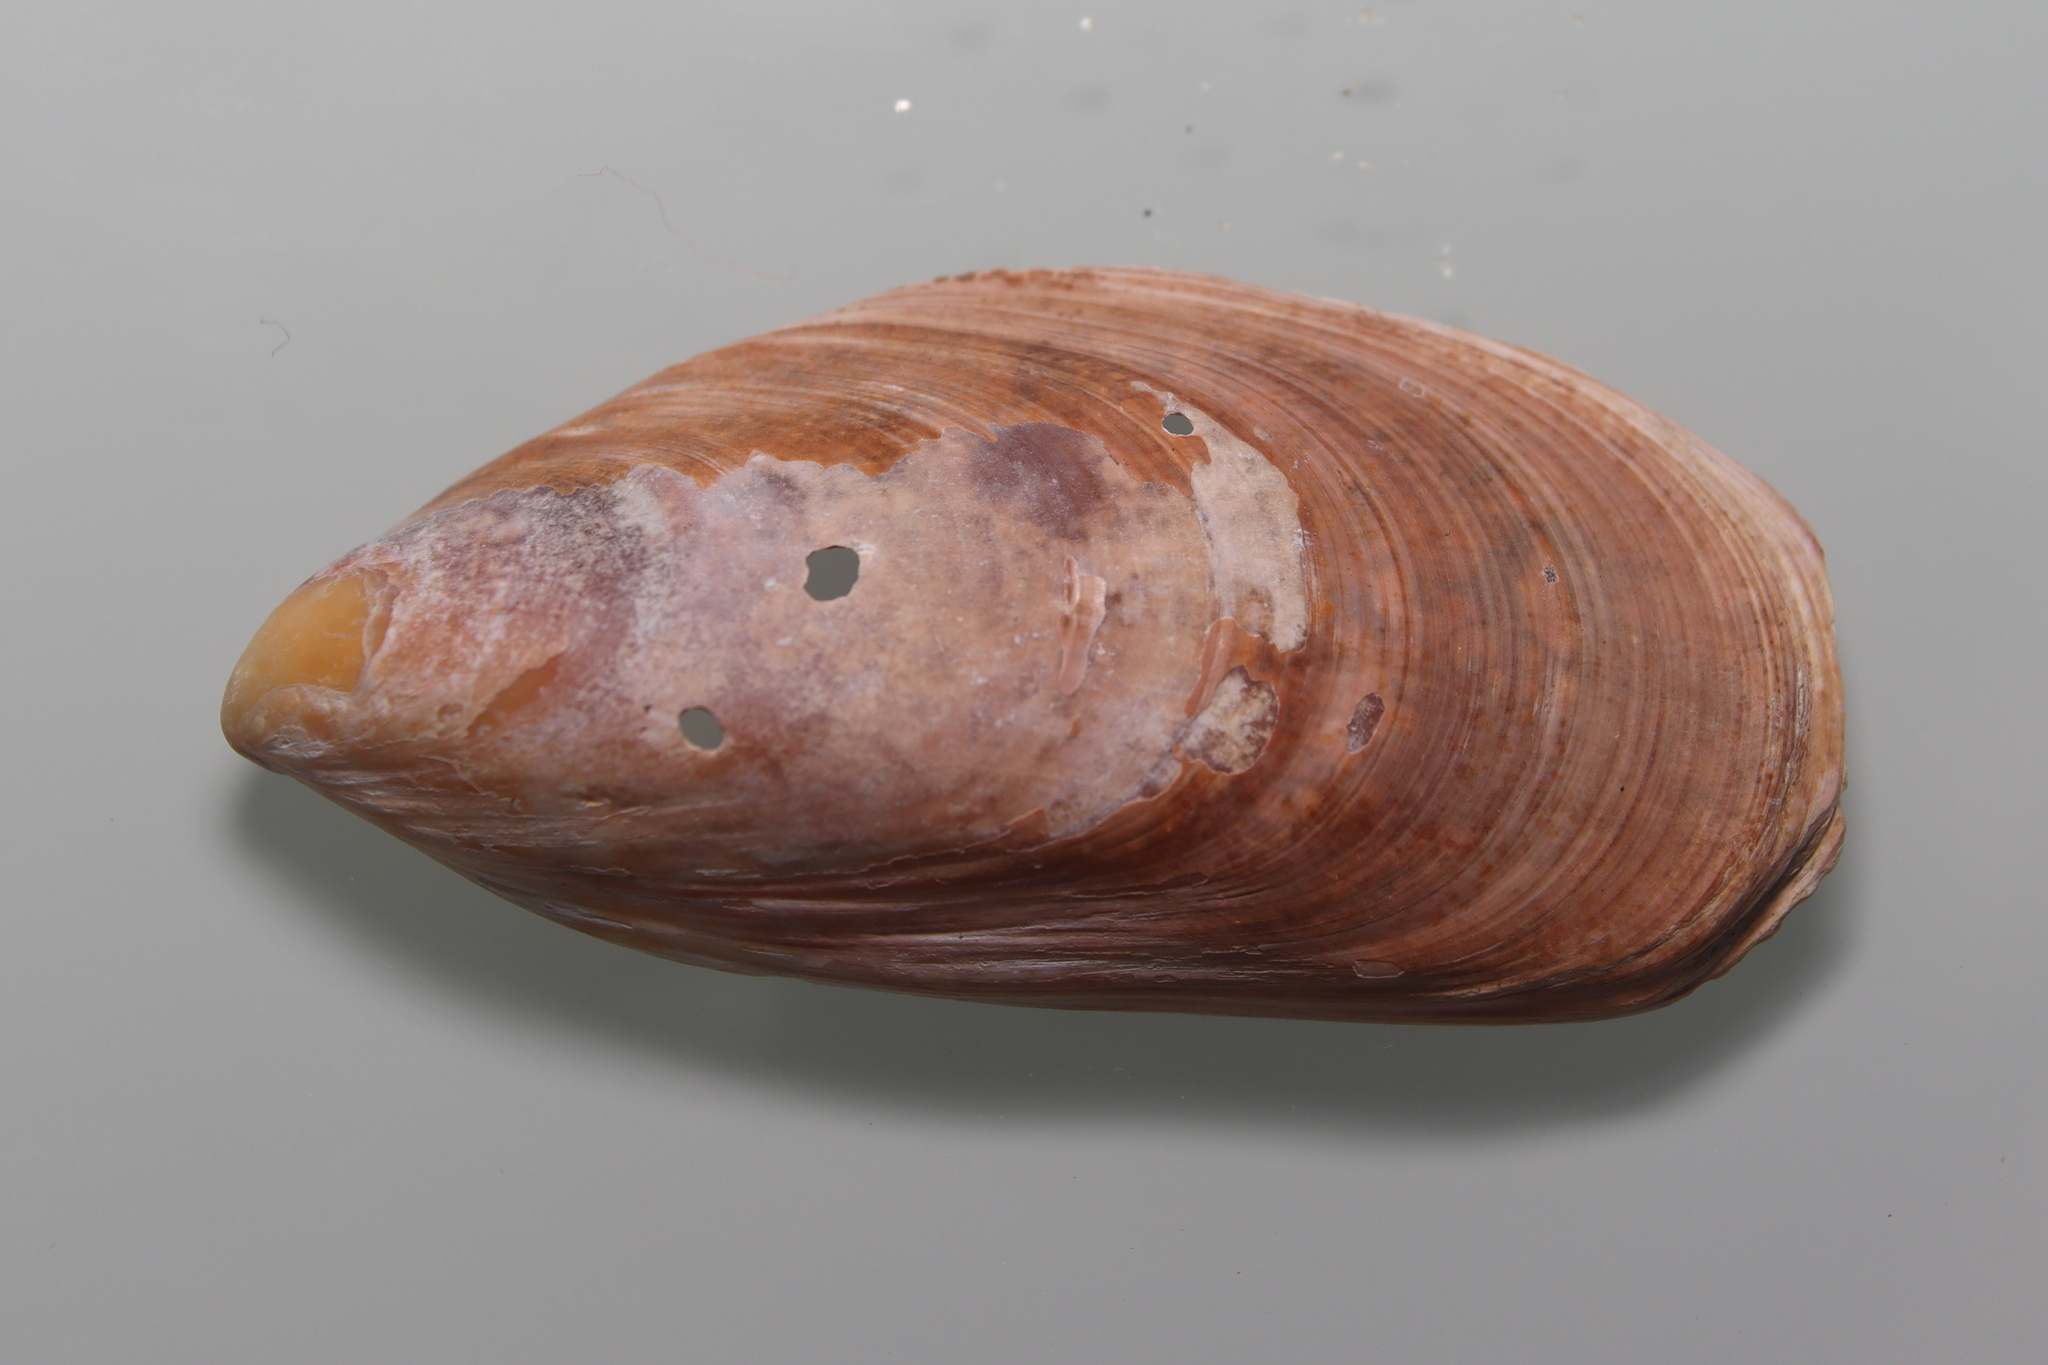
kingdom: Animalia
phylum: Mollusca
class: Bivalvia
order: Mytilida
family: Mytilidae
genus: Perna
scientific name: Perna perna
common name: Mexilhao mussel
